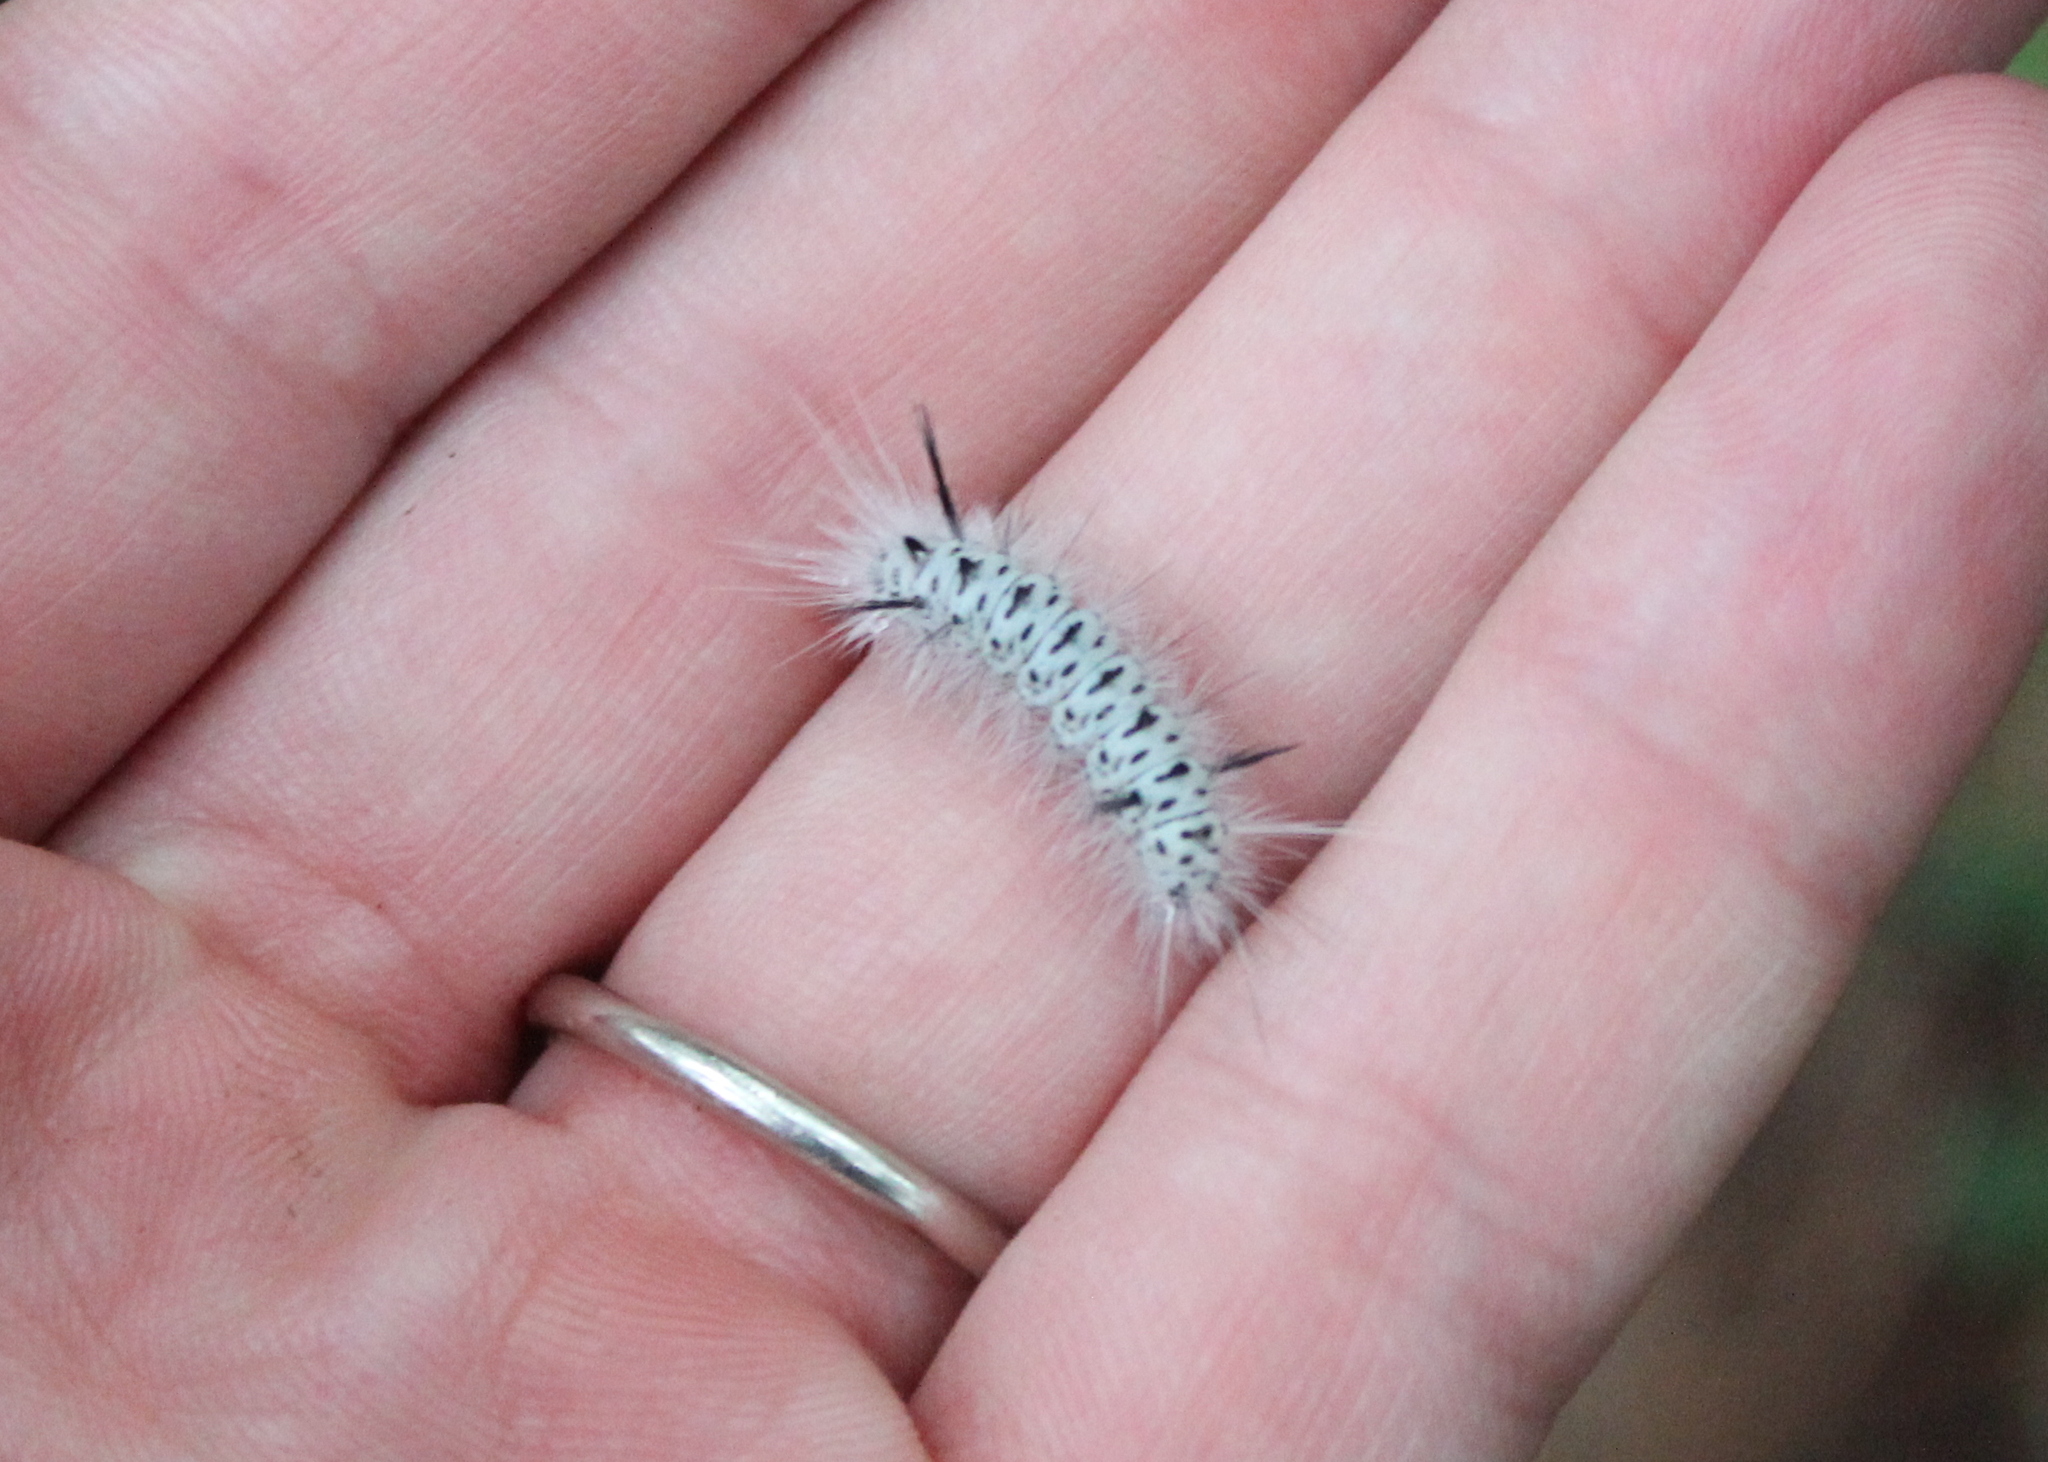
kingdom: Animalia
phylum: Arthropoda
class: Insecta
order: Lepidoptera
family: Erebidae
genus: Lophocampa
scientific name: Lophocampa caryae
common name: Hickory tussock moth
